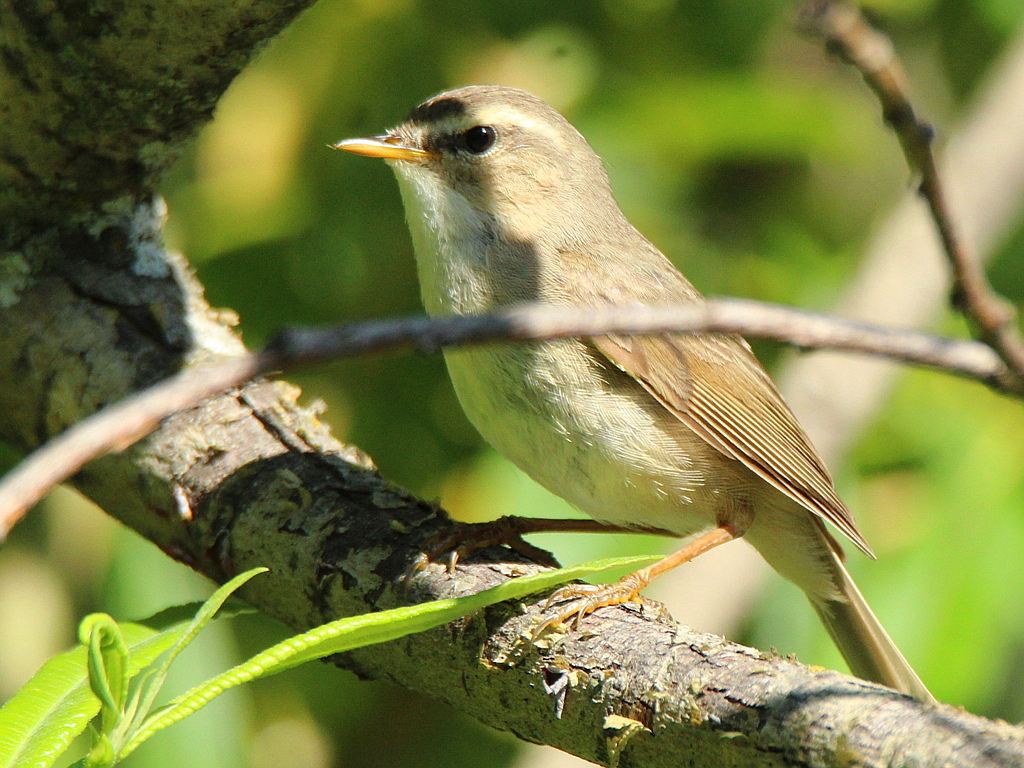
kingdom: Animalia
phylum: Chordata
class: Aves
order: Passeriformes
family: Phylloscopidae
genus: Phylloscopus
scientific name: Phylloscopus fuscatus
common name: Dusky warbler
